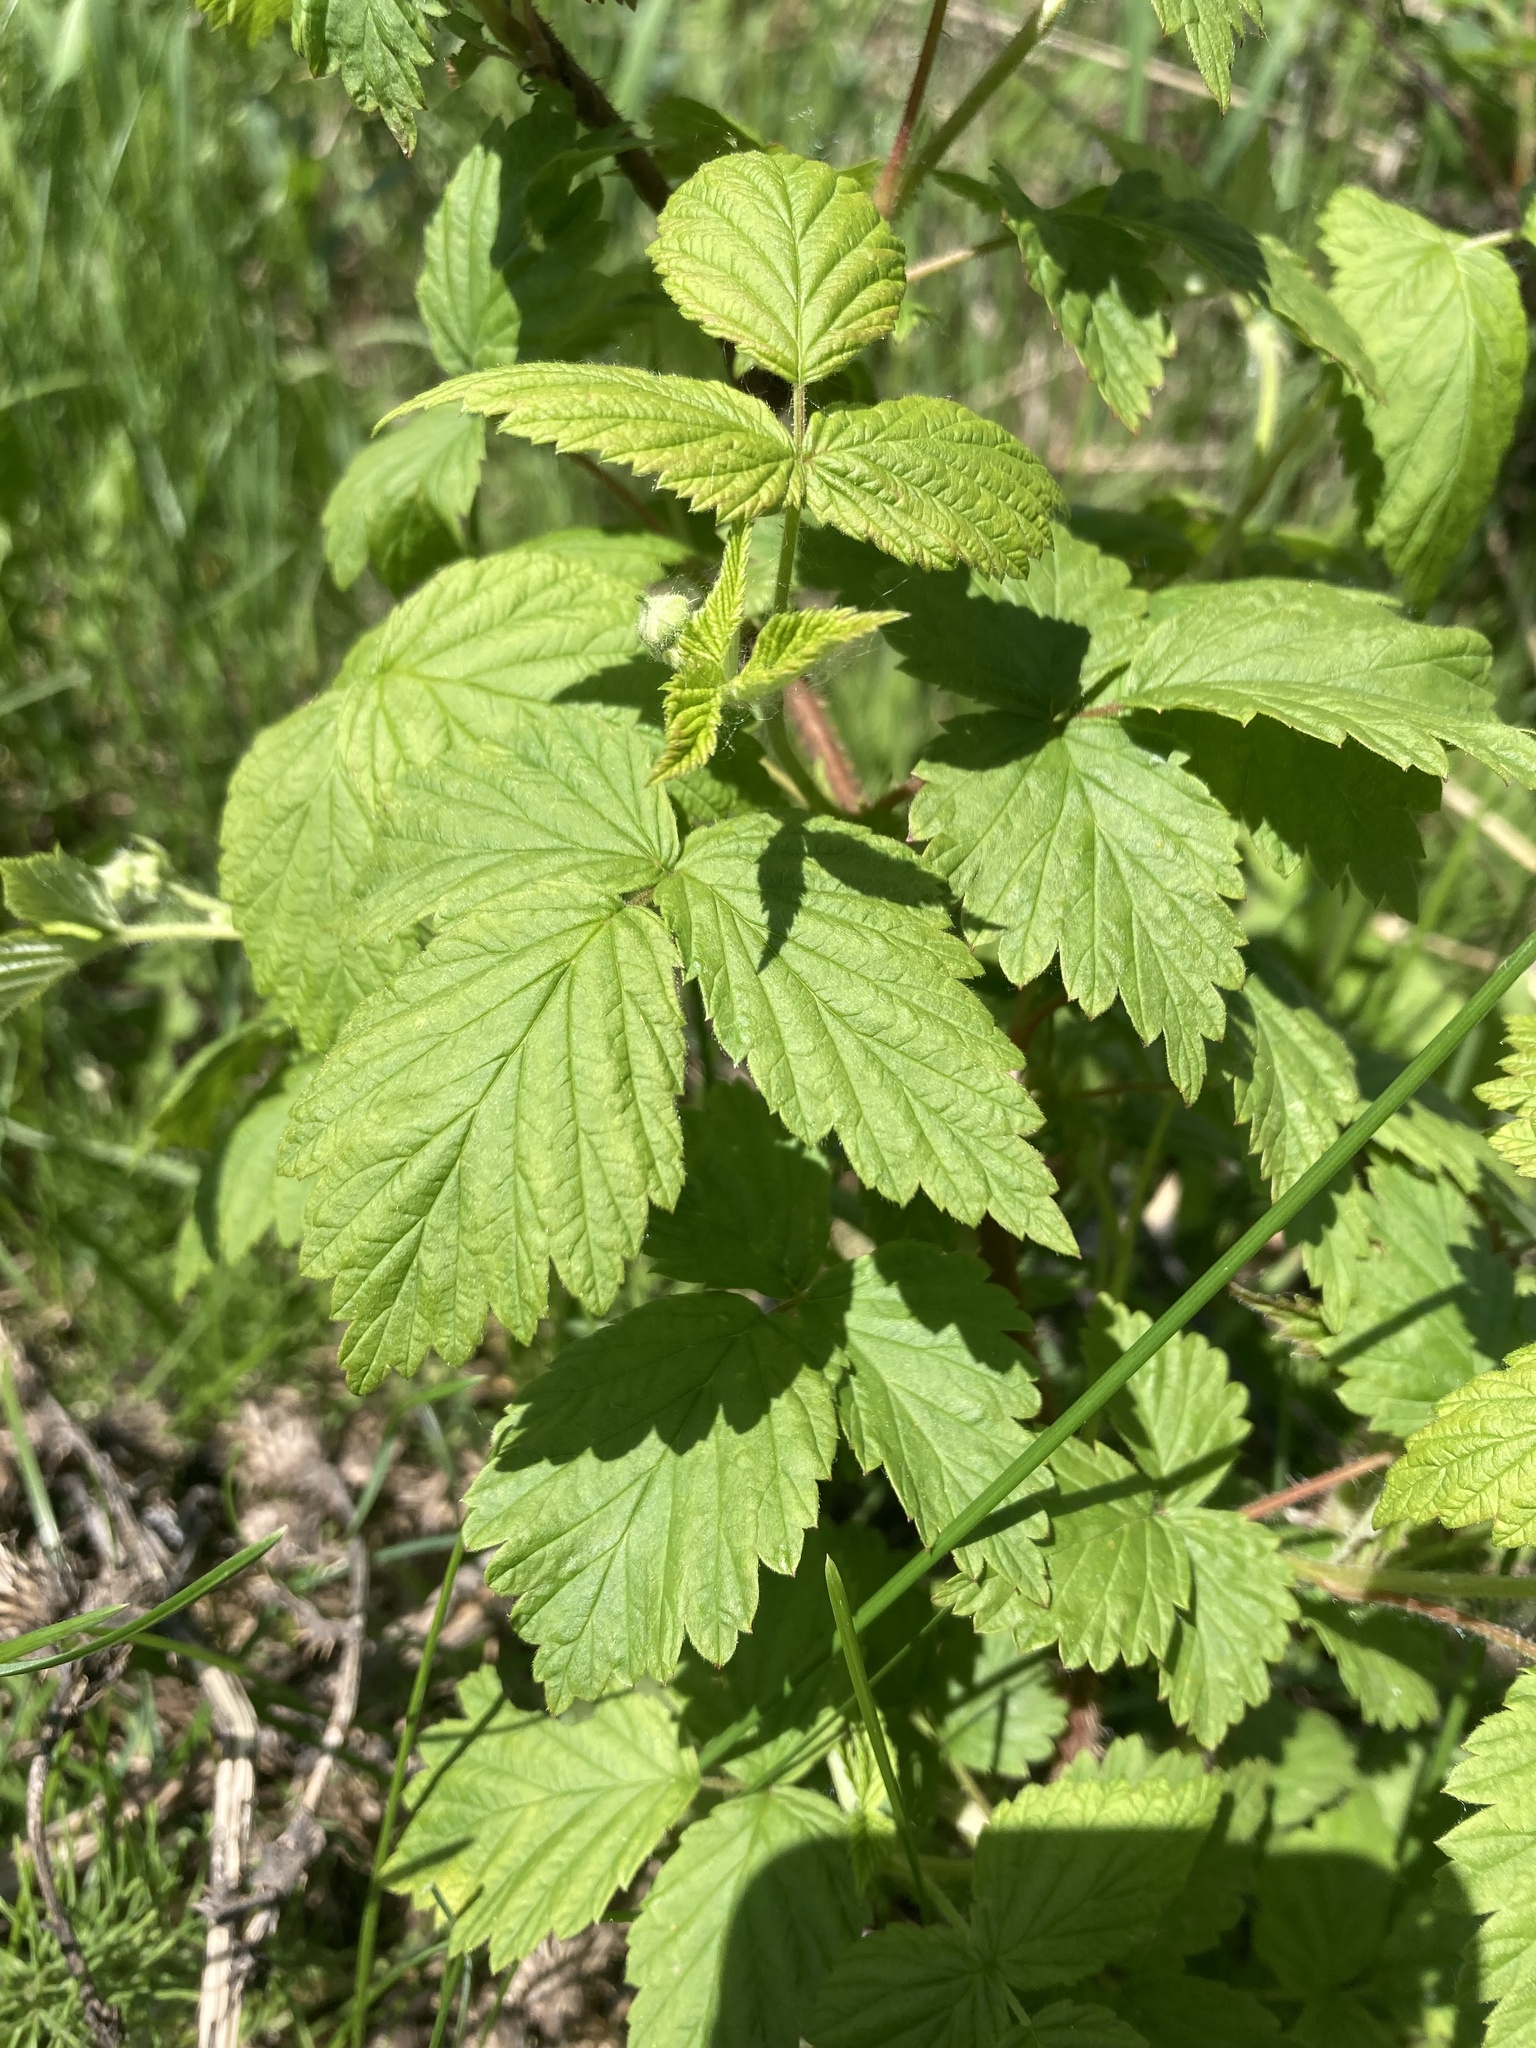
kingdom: Plantae
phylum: Tracheophyta
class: Magnoliopsida
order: Rosales
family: Rosaceae
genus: Rubus
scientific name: Rubus idaeus
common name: Raspberry
